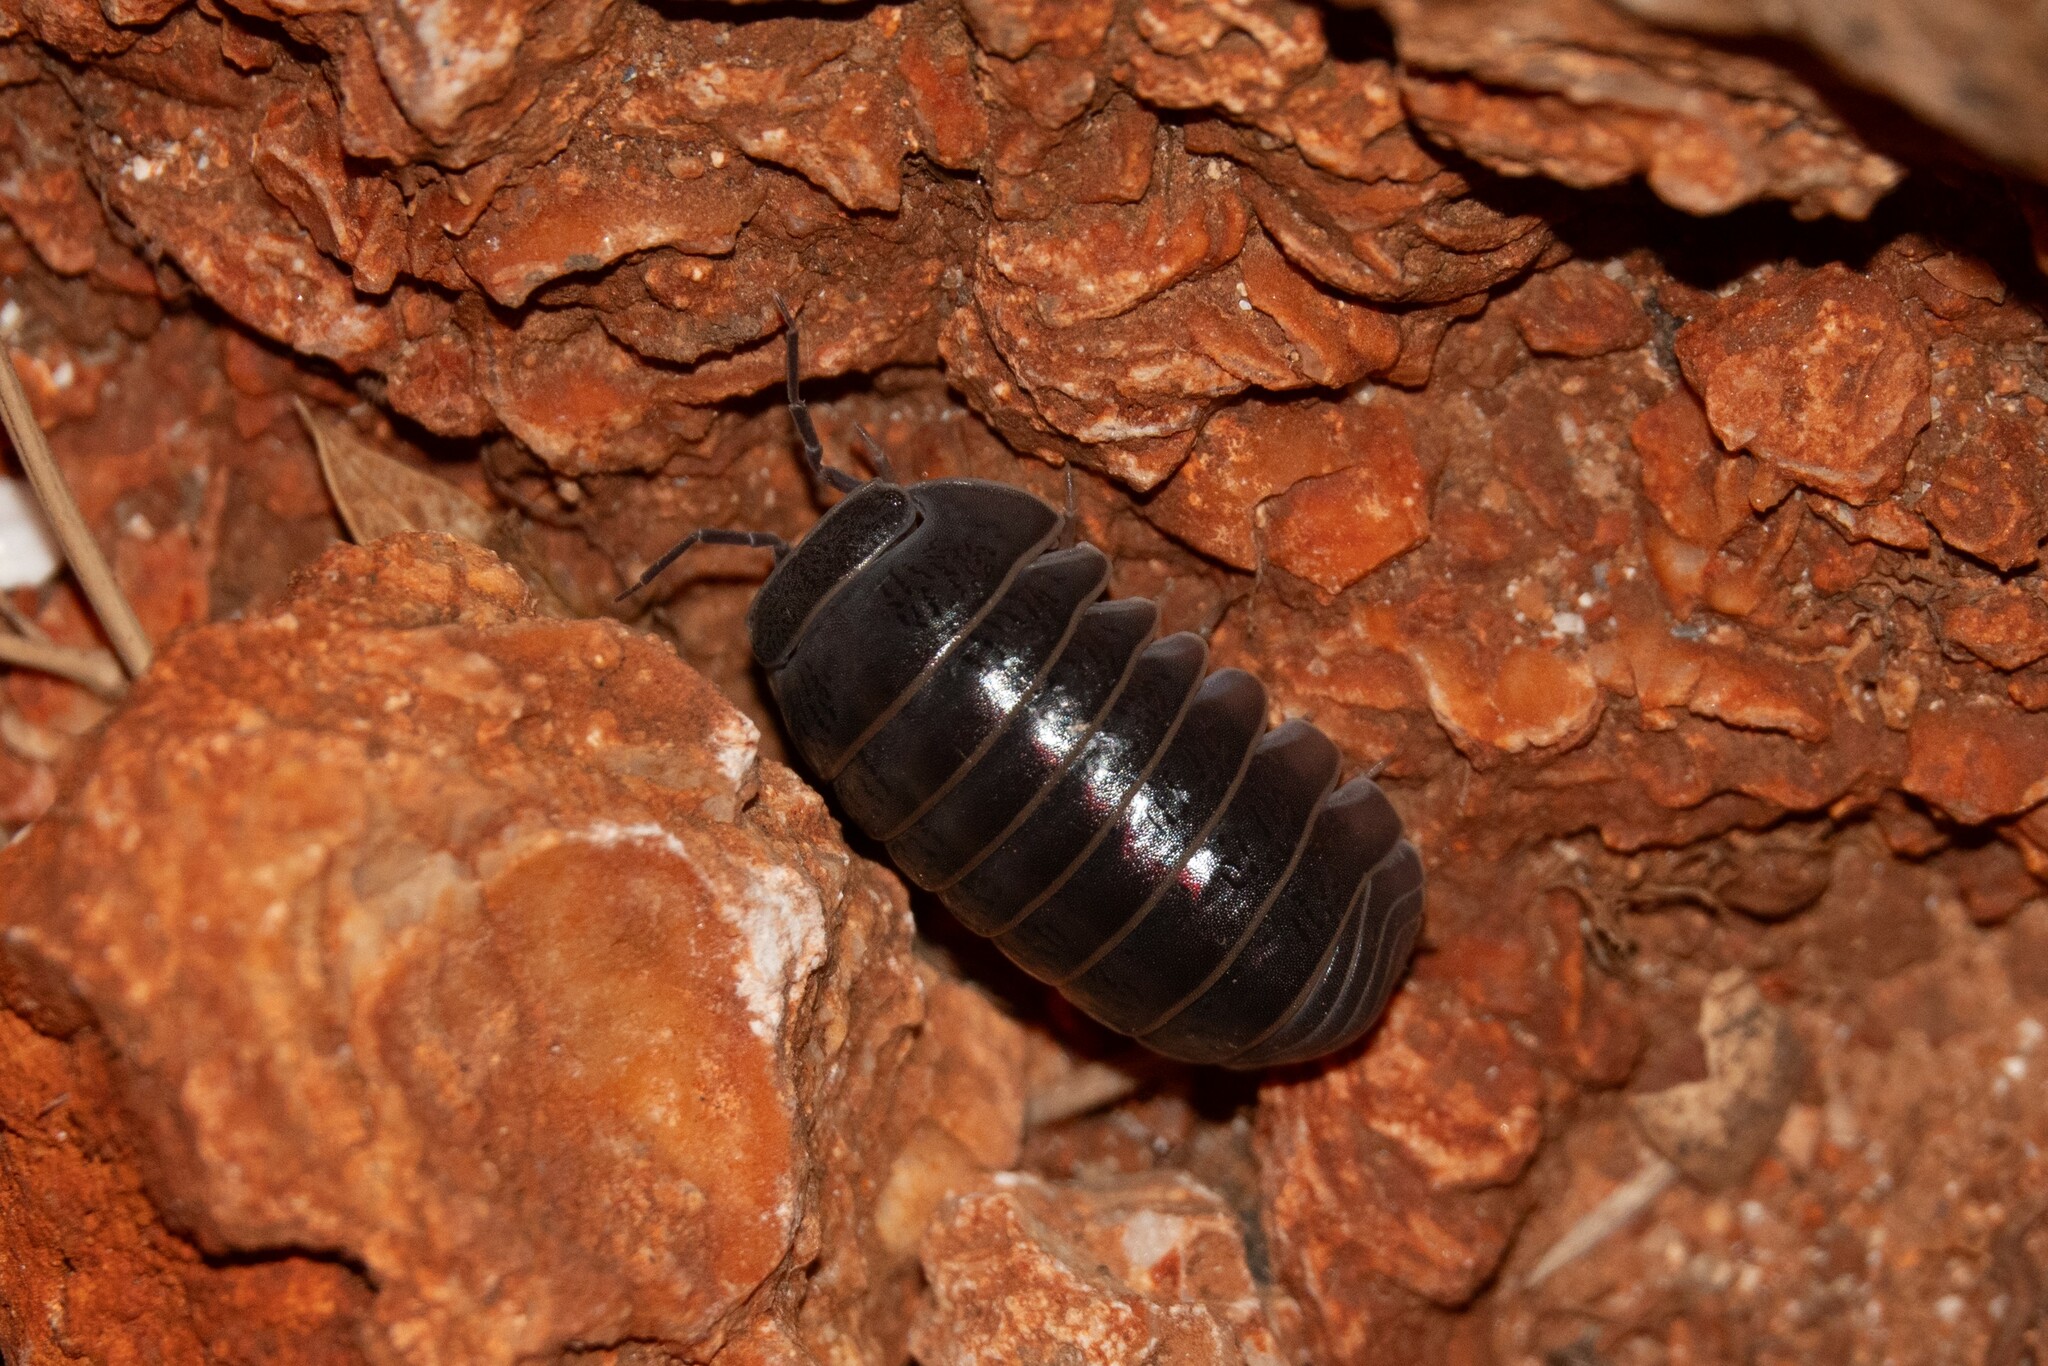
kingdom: Animalia
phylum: Arthropoda
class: Malacostraca
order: Isopoda
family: Armadillidae
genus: Armadillo
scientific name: Armadillo officinalis
